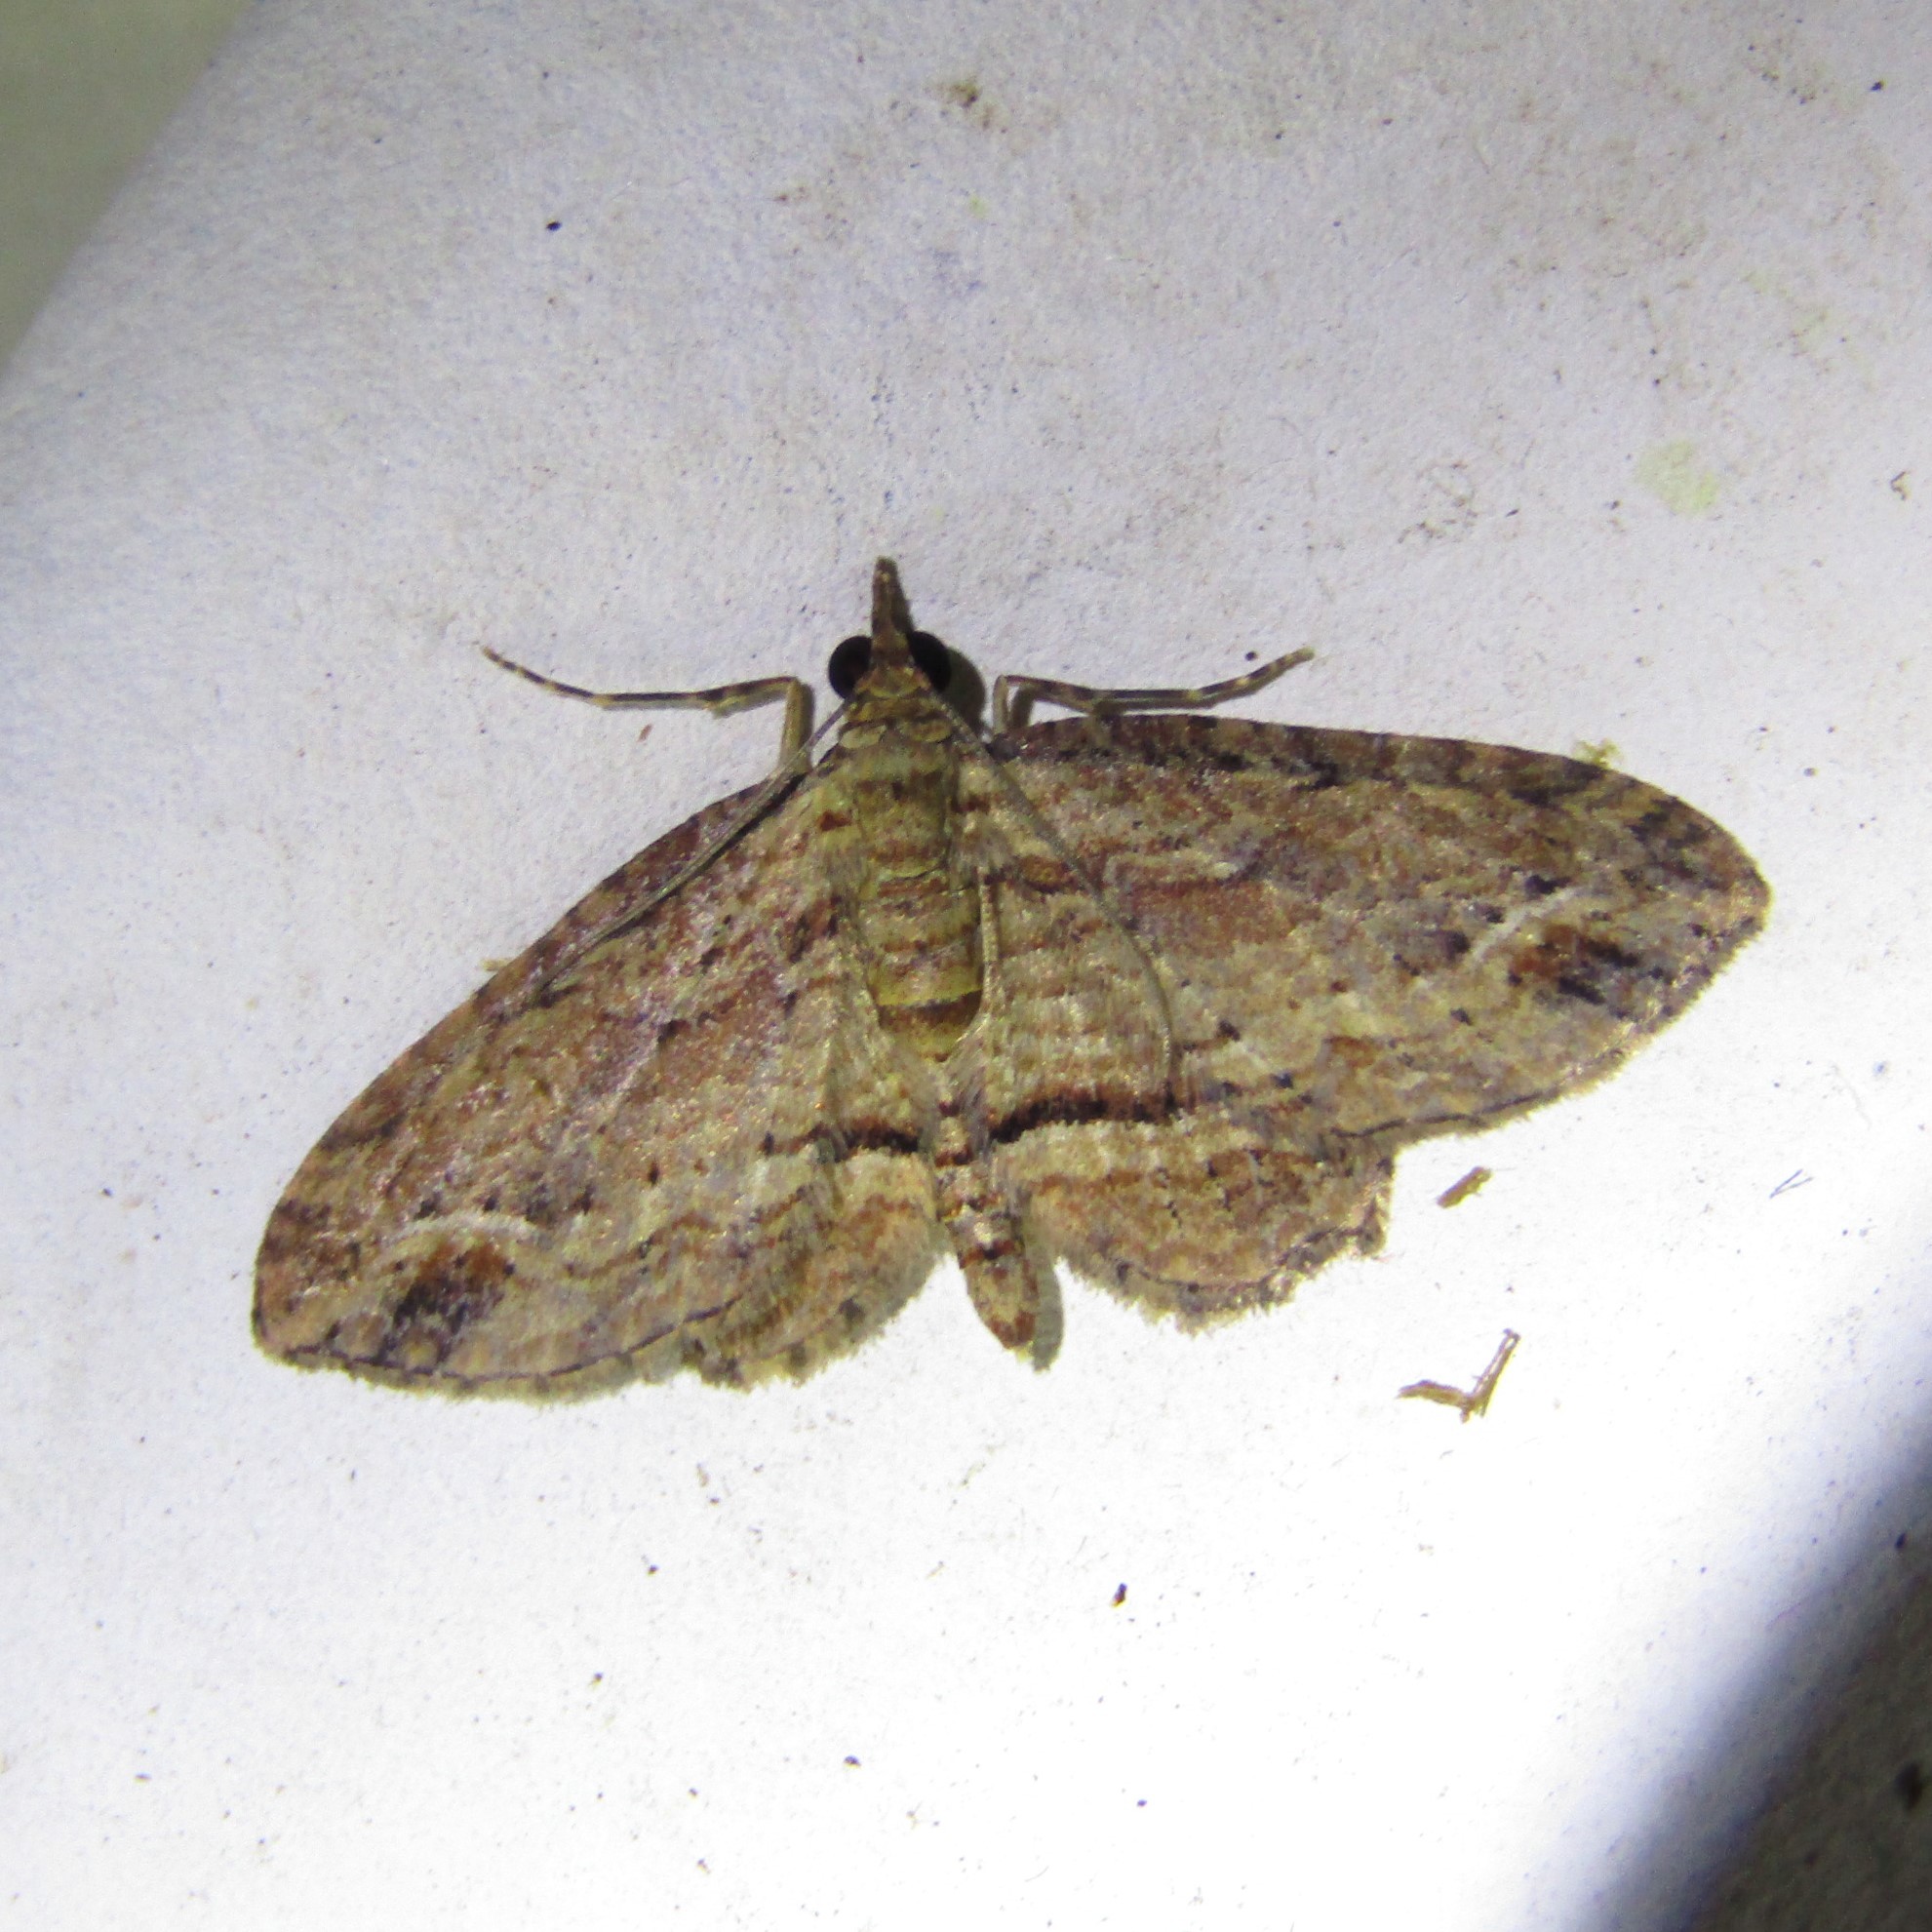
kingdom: Animalia
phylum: Arthropoda
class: Insecta
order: Lepidoptera
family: Geometridae
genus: Chloroclystis
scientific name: Chloroclystis filata
